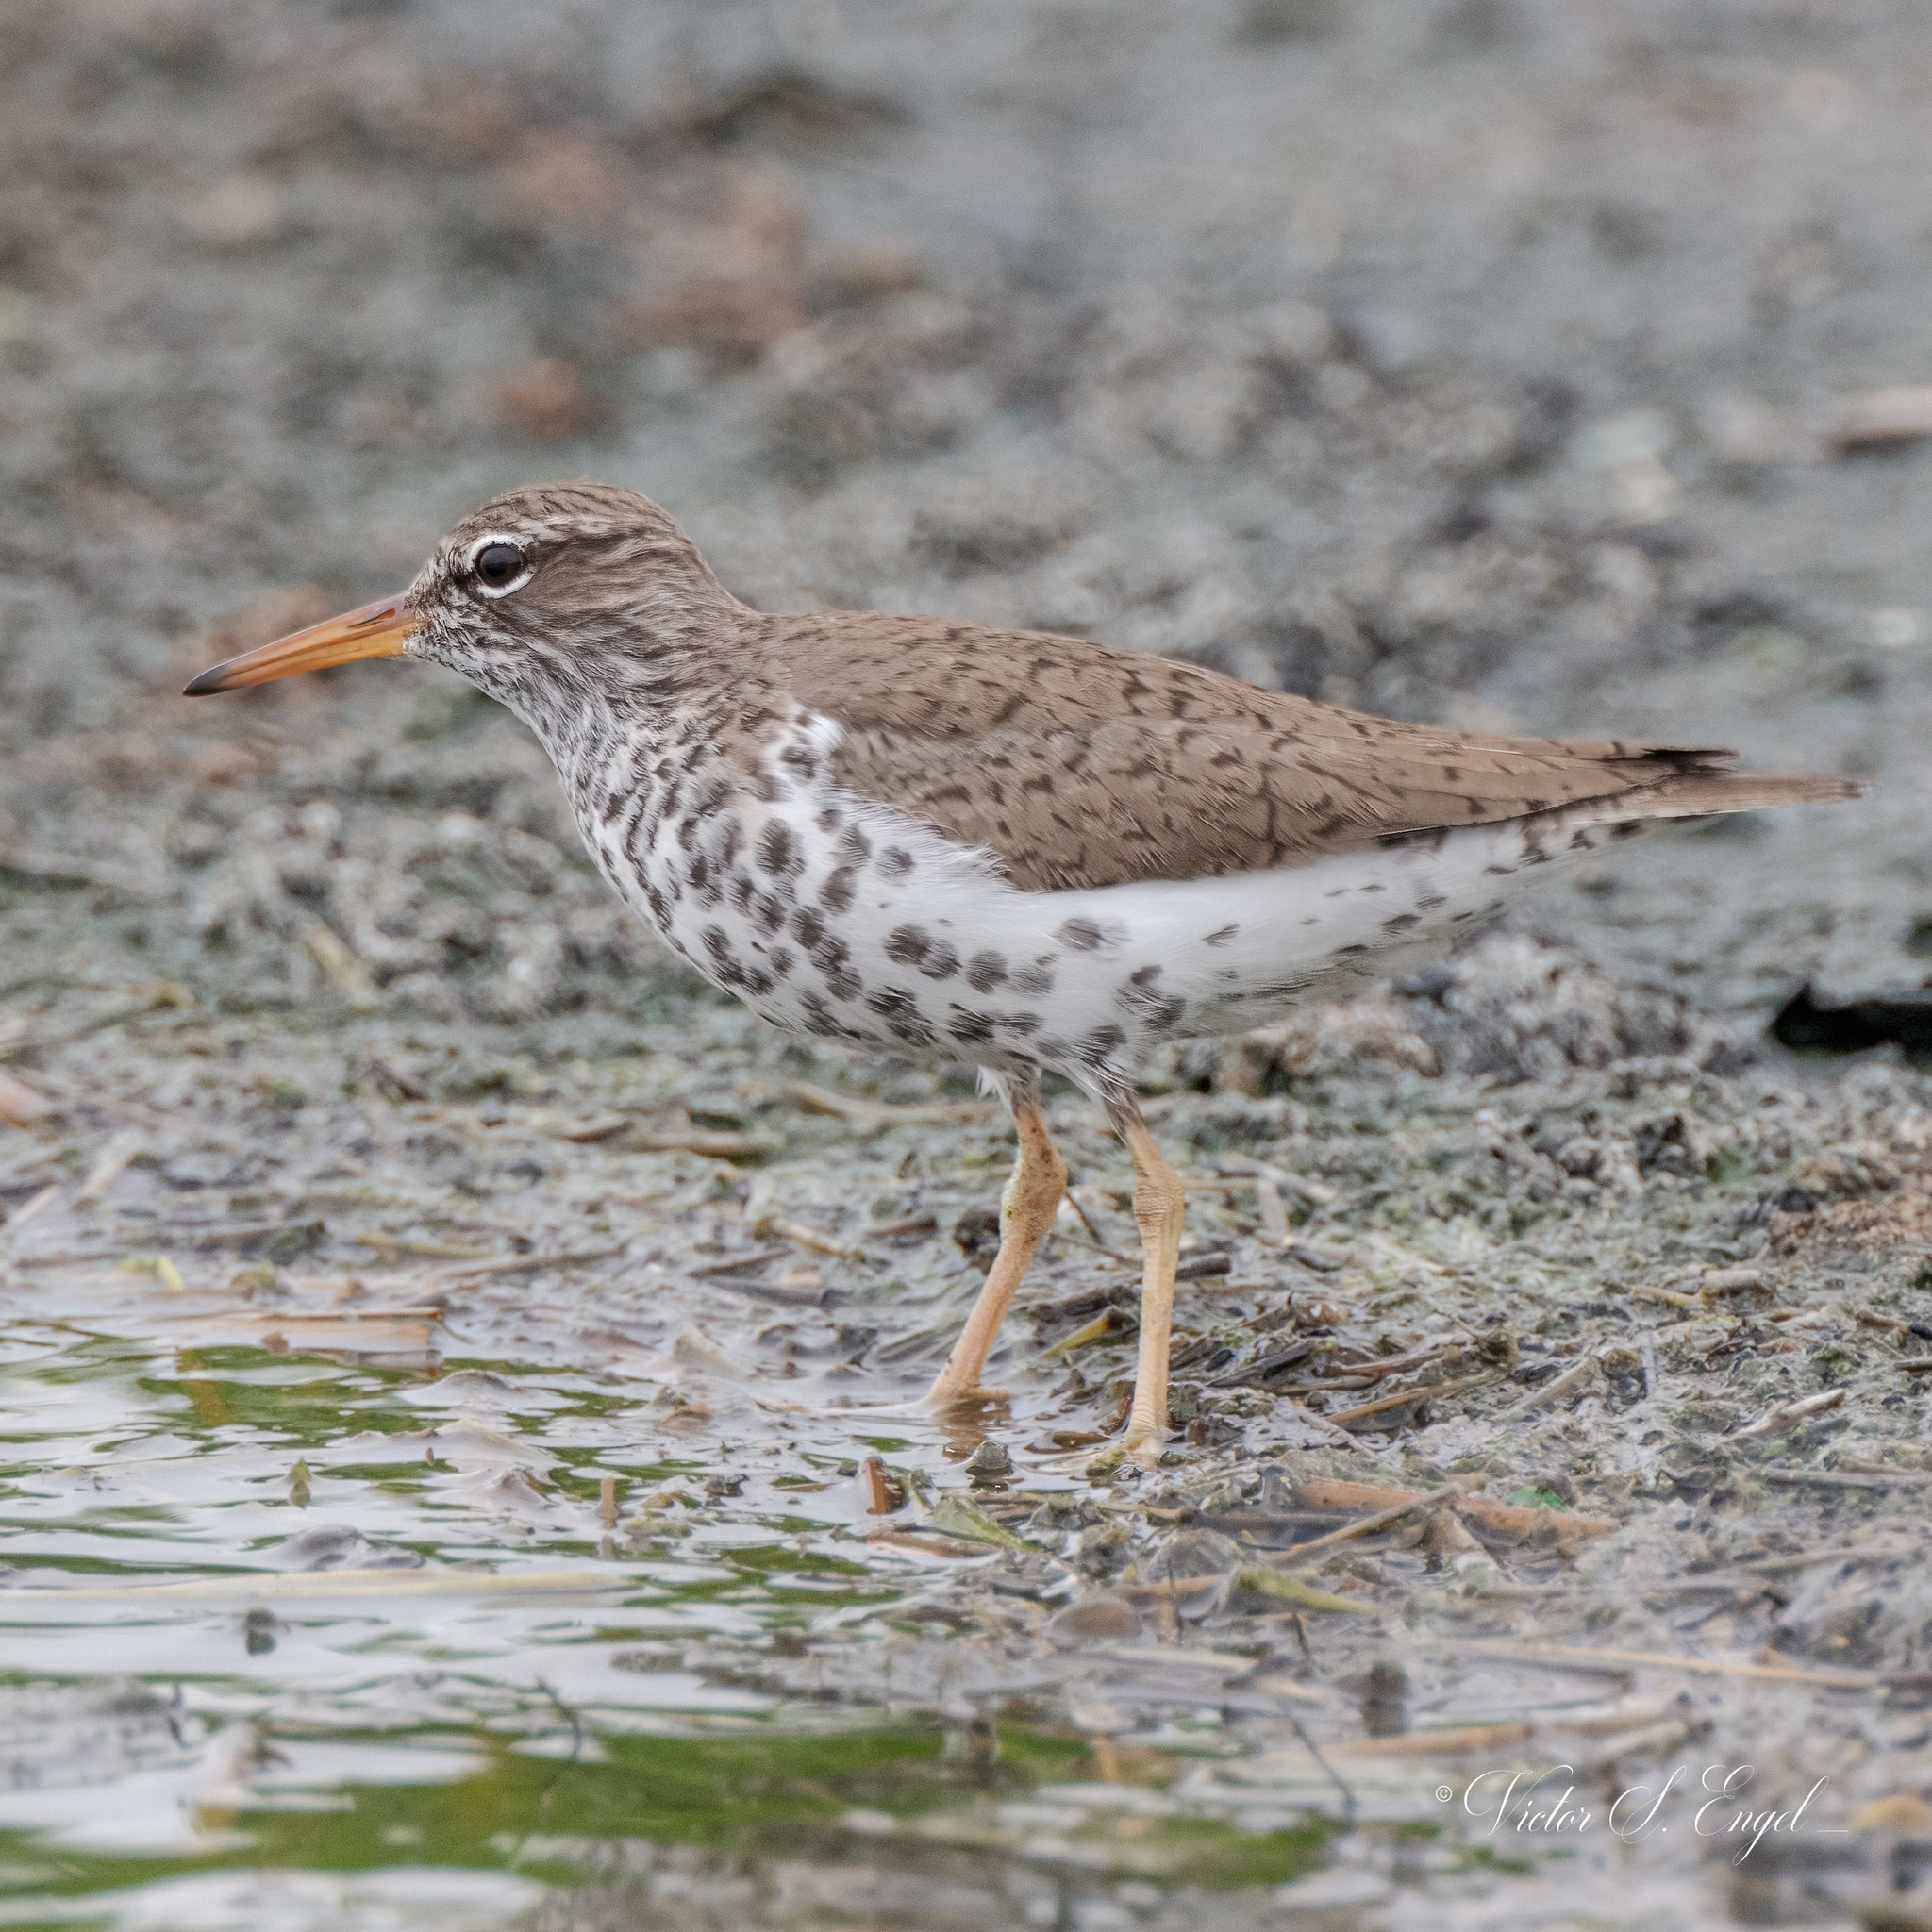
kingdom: Animalia
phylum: Chordata
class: Aves
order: Charadriiformes
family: Scolopacidae
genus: Actitis
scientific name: Actitis macularius
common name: Spotted sandpiper
